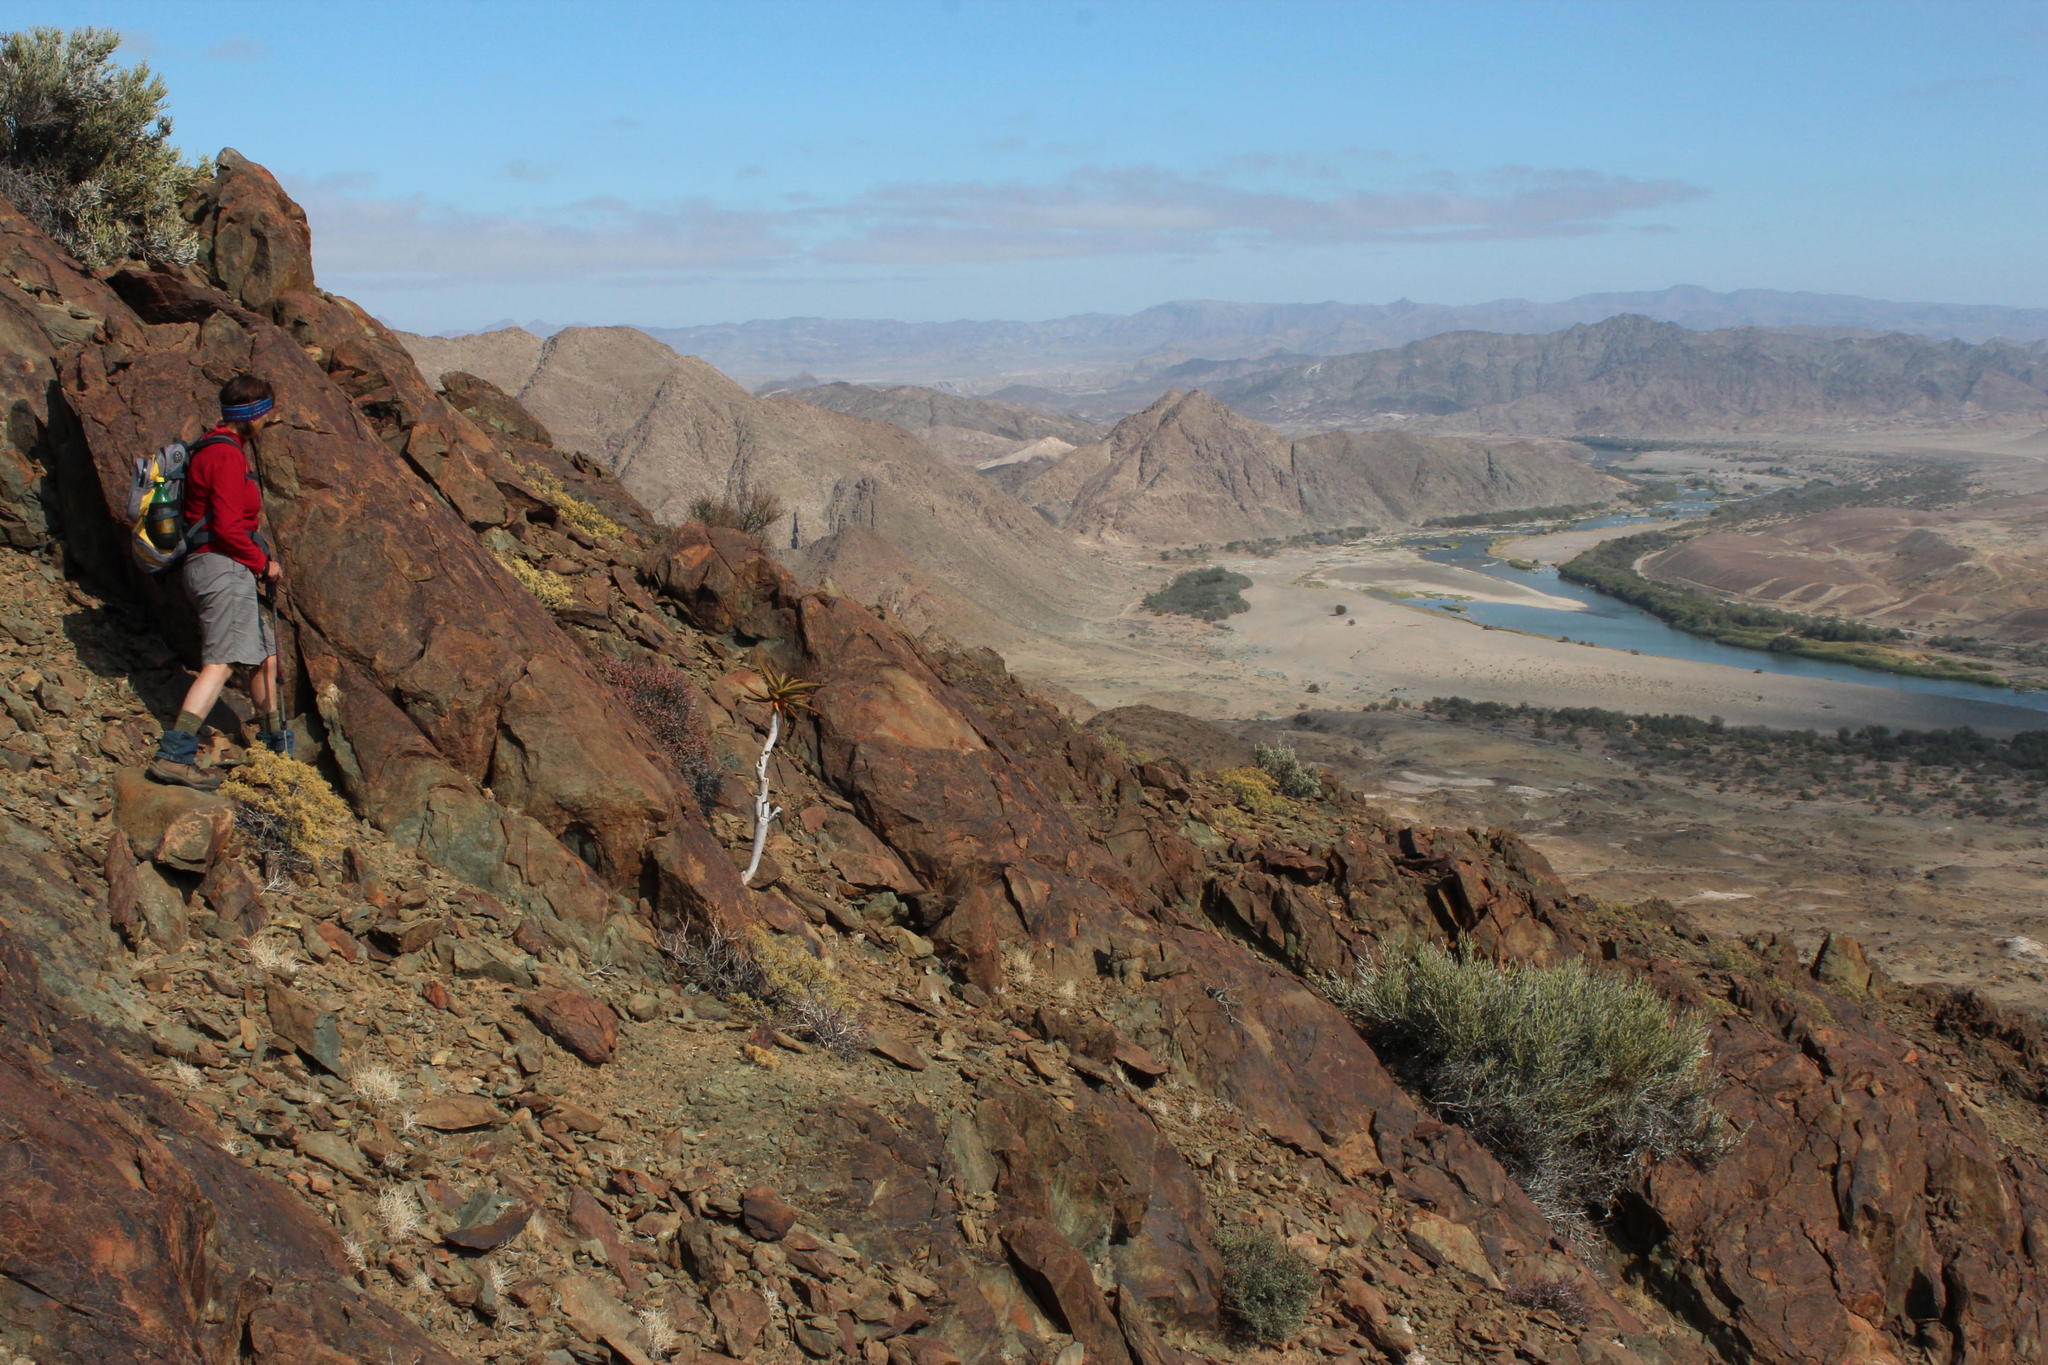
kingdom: Plantae
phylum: Tracheophyta
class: Liliopsida
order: Asparagales
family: Asphodelaceae
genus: Aloidendron
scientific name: Aloidendron dichotomum
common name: Quiver tree
